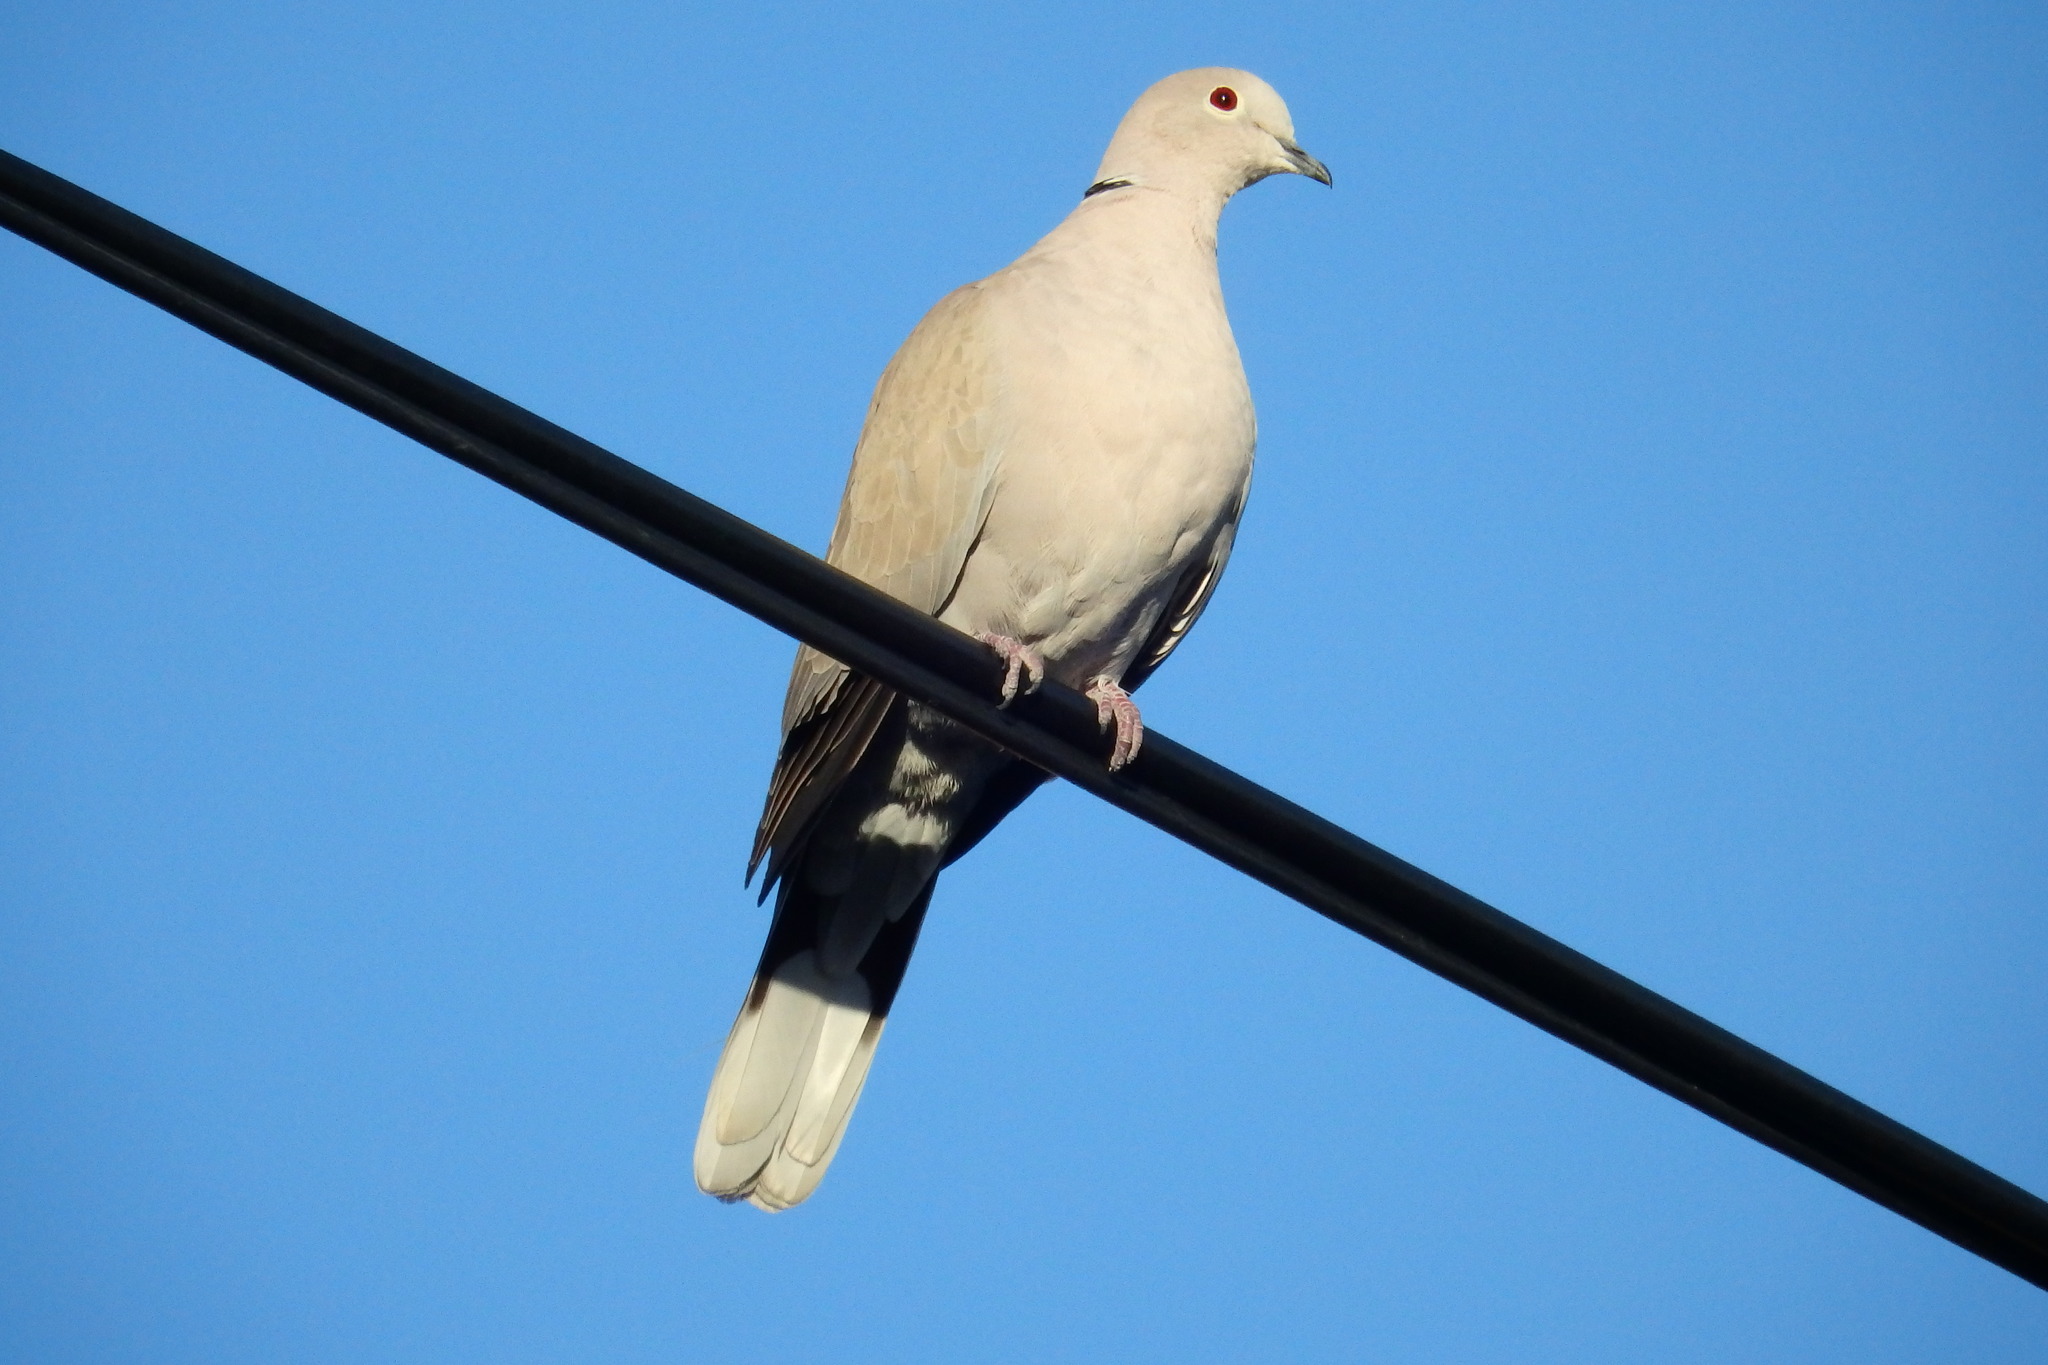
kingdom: Animalia
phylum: Chordata
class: Aves
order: Columbiformes
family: Columbidae
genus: Streptopelia
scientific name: Streptopelia decaocto
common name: Eurasian collared dove
